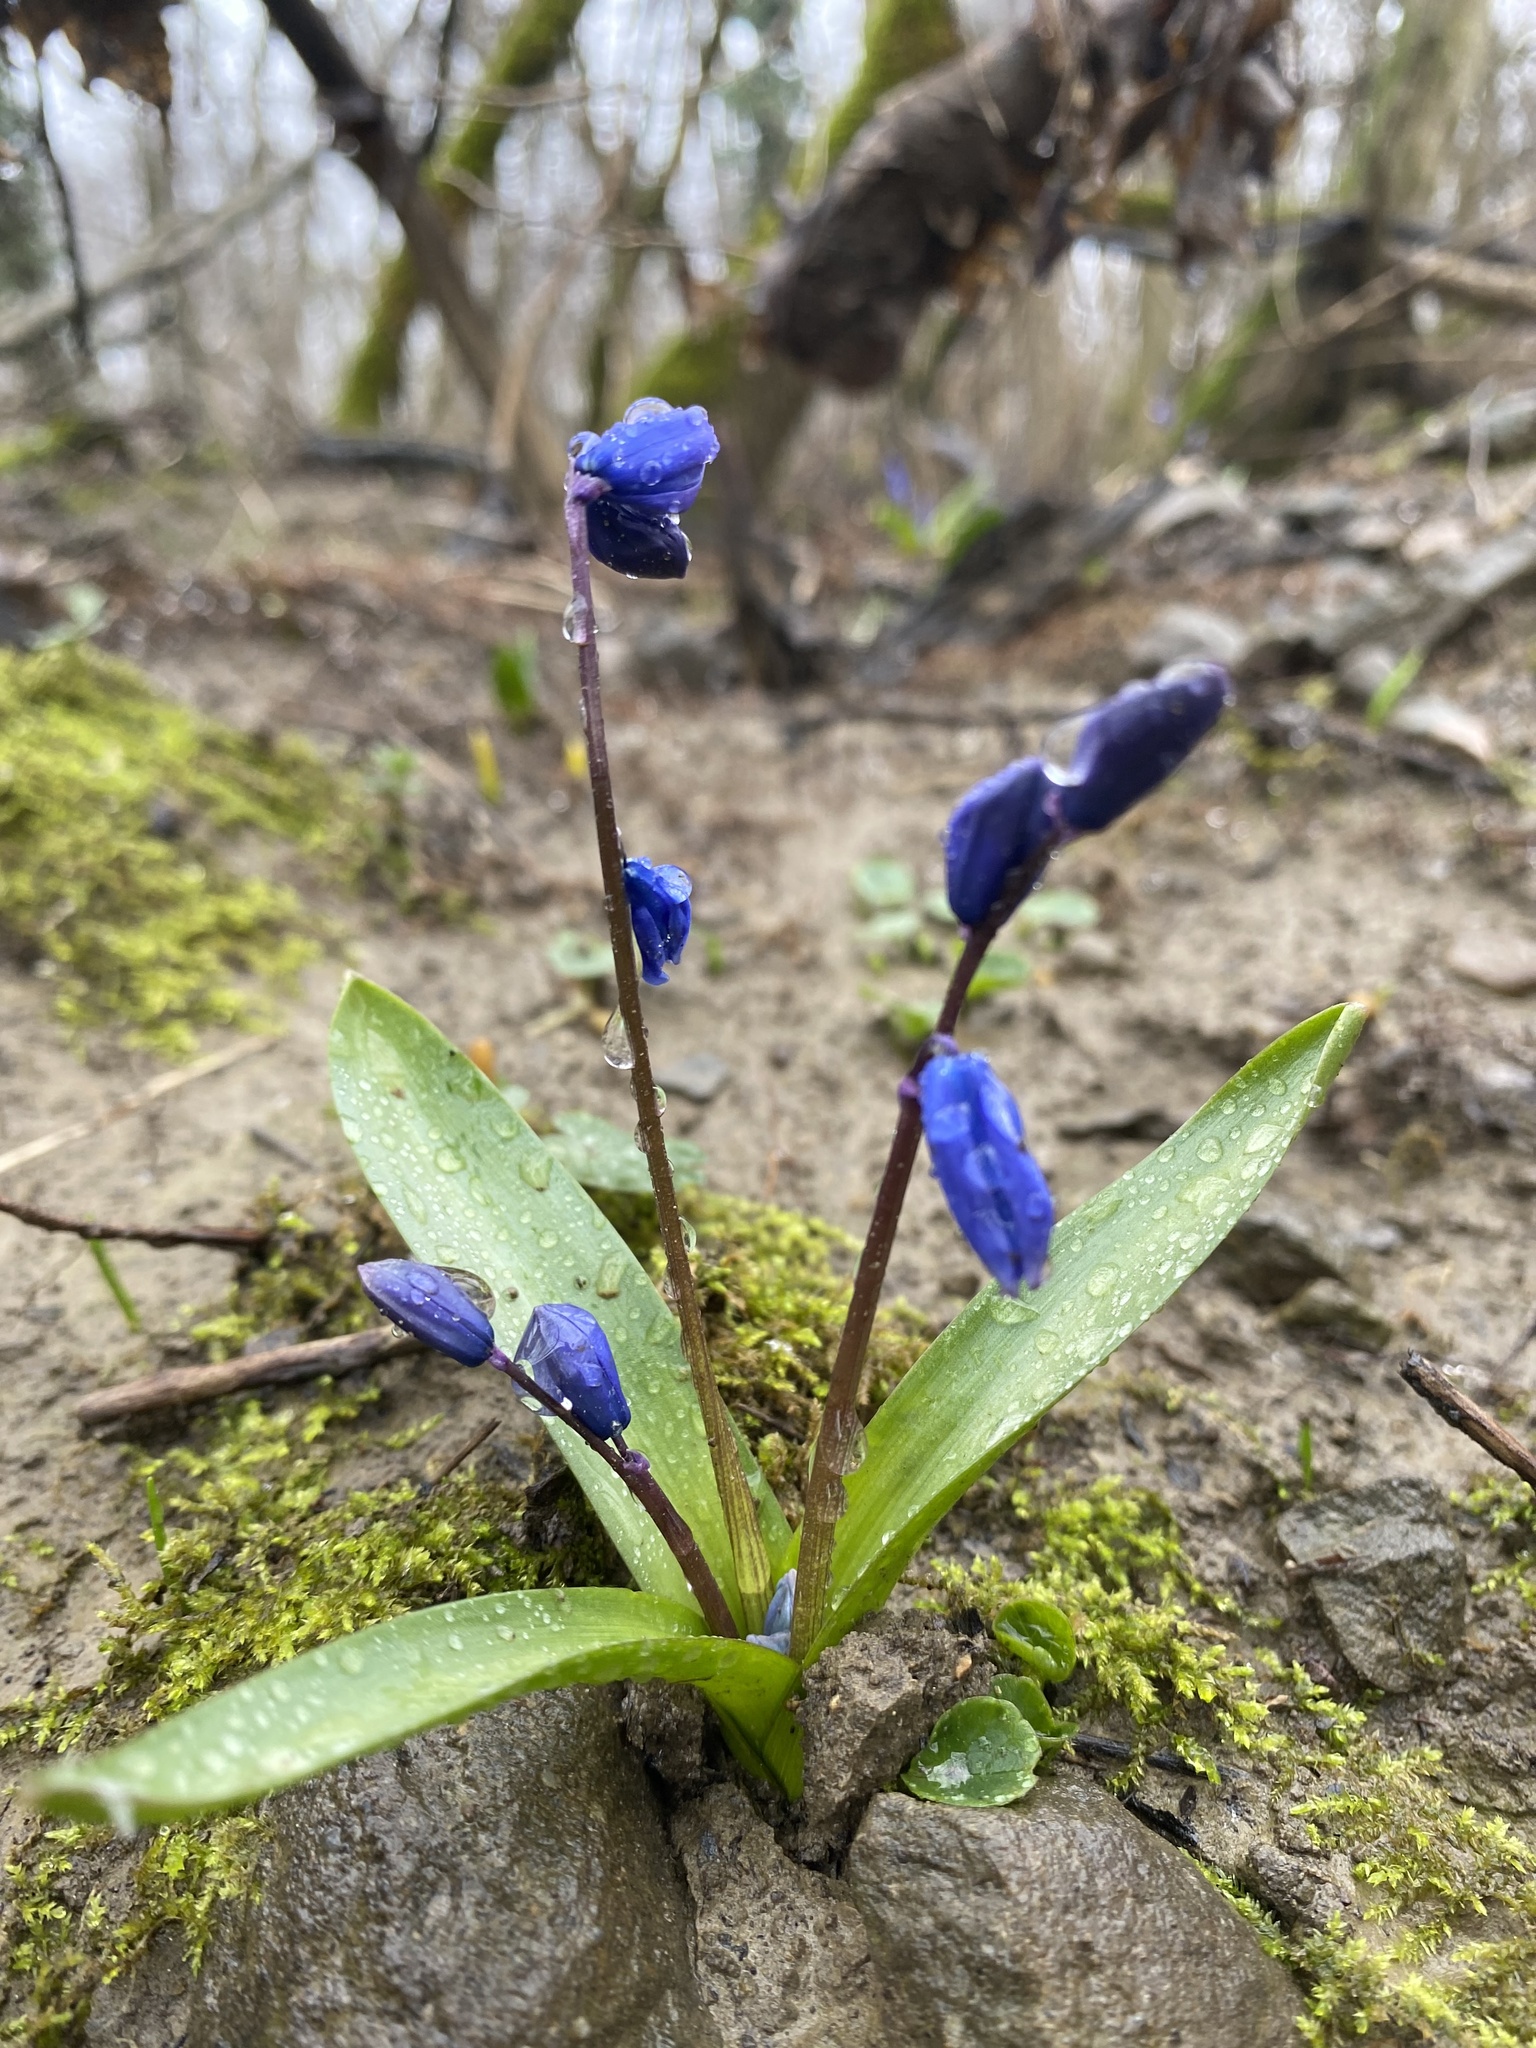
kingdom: Plantae
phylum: Tracheophyta
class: Liliopsida
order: Asparagales
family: Asparagaceae
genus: Scilla
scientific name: Scilla siberica
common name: Siberian squill
